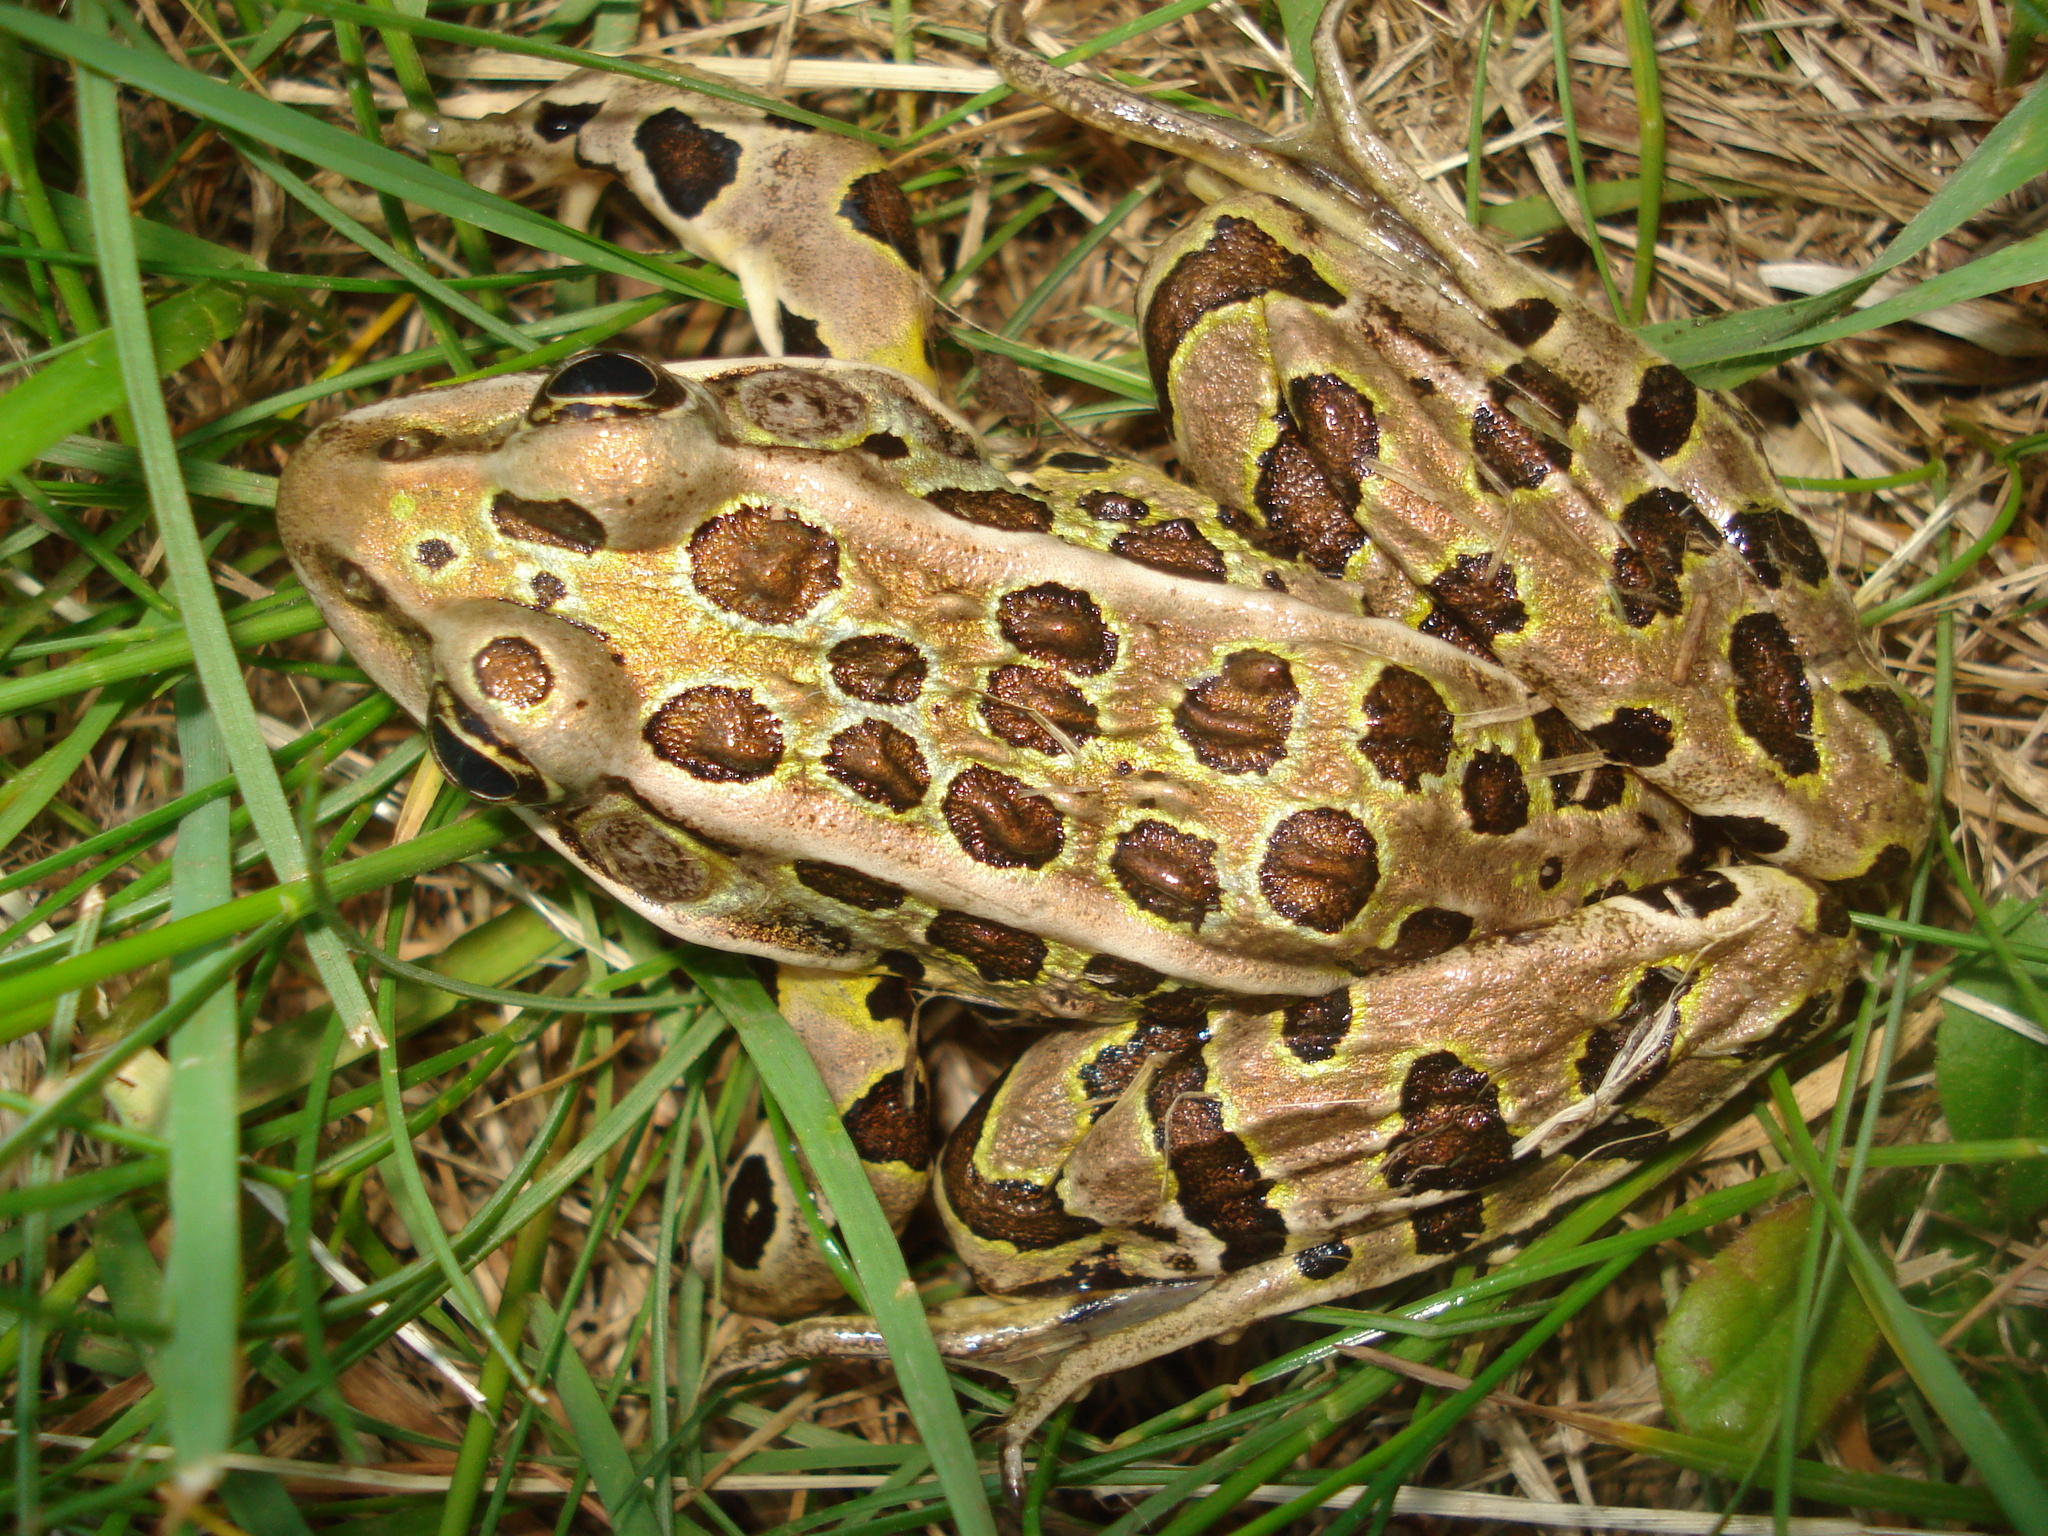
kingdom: Animalia
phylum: Chordata
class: Amphibia
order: Anura
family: Ranidae
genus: Lithobates
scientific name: Lithobates pipiens
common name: Northern leopard frog
